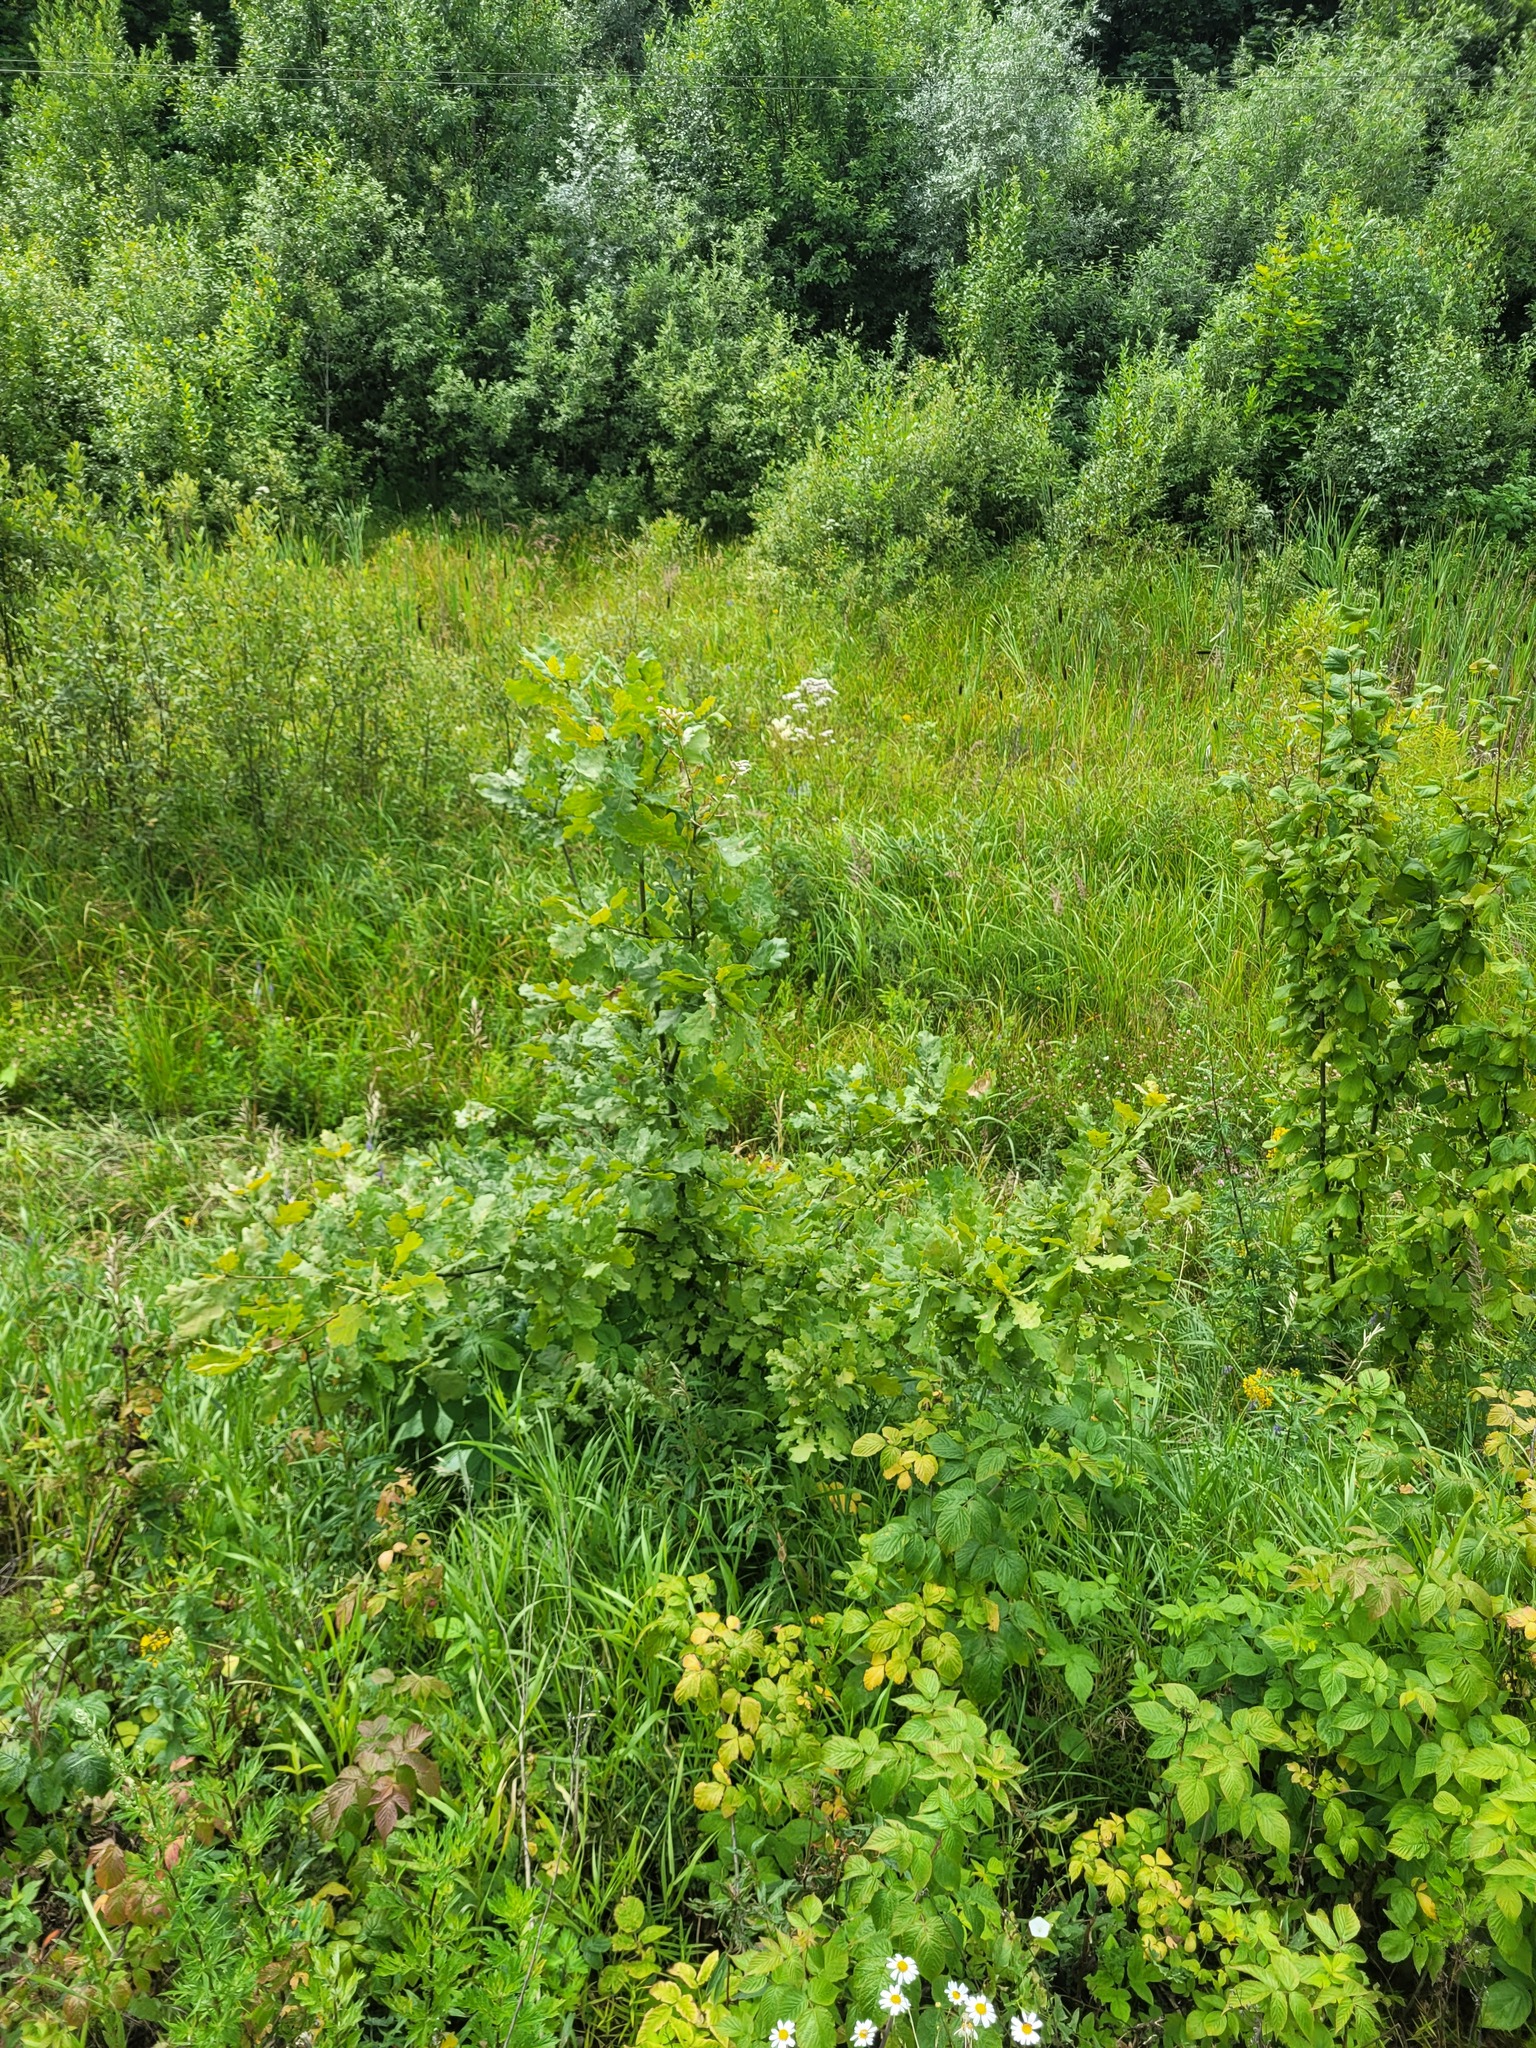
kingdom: Plantae
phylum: Tracheophyta
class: Magnoliopsida
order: Fagales
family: Fagaceae
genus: Quercus
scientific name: Quercus robur
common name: Pedunculate oak
